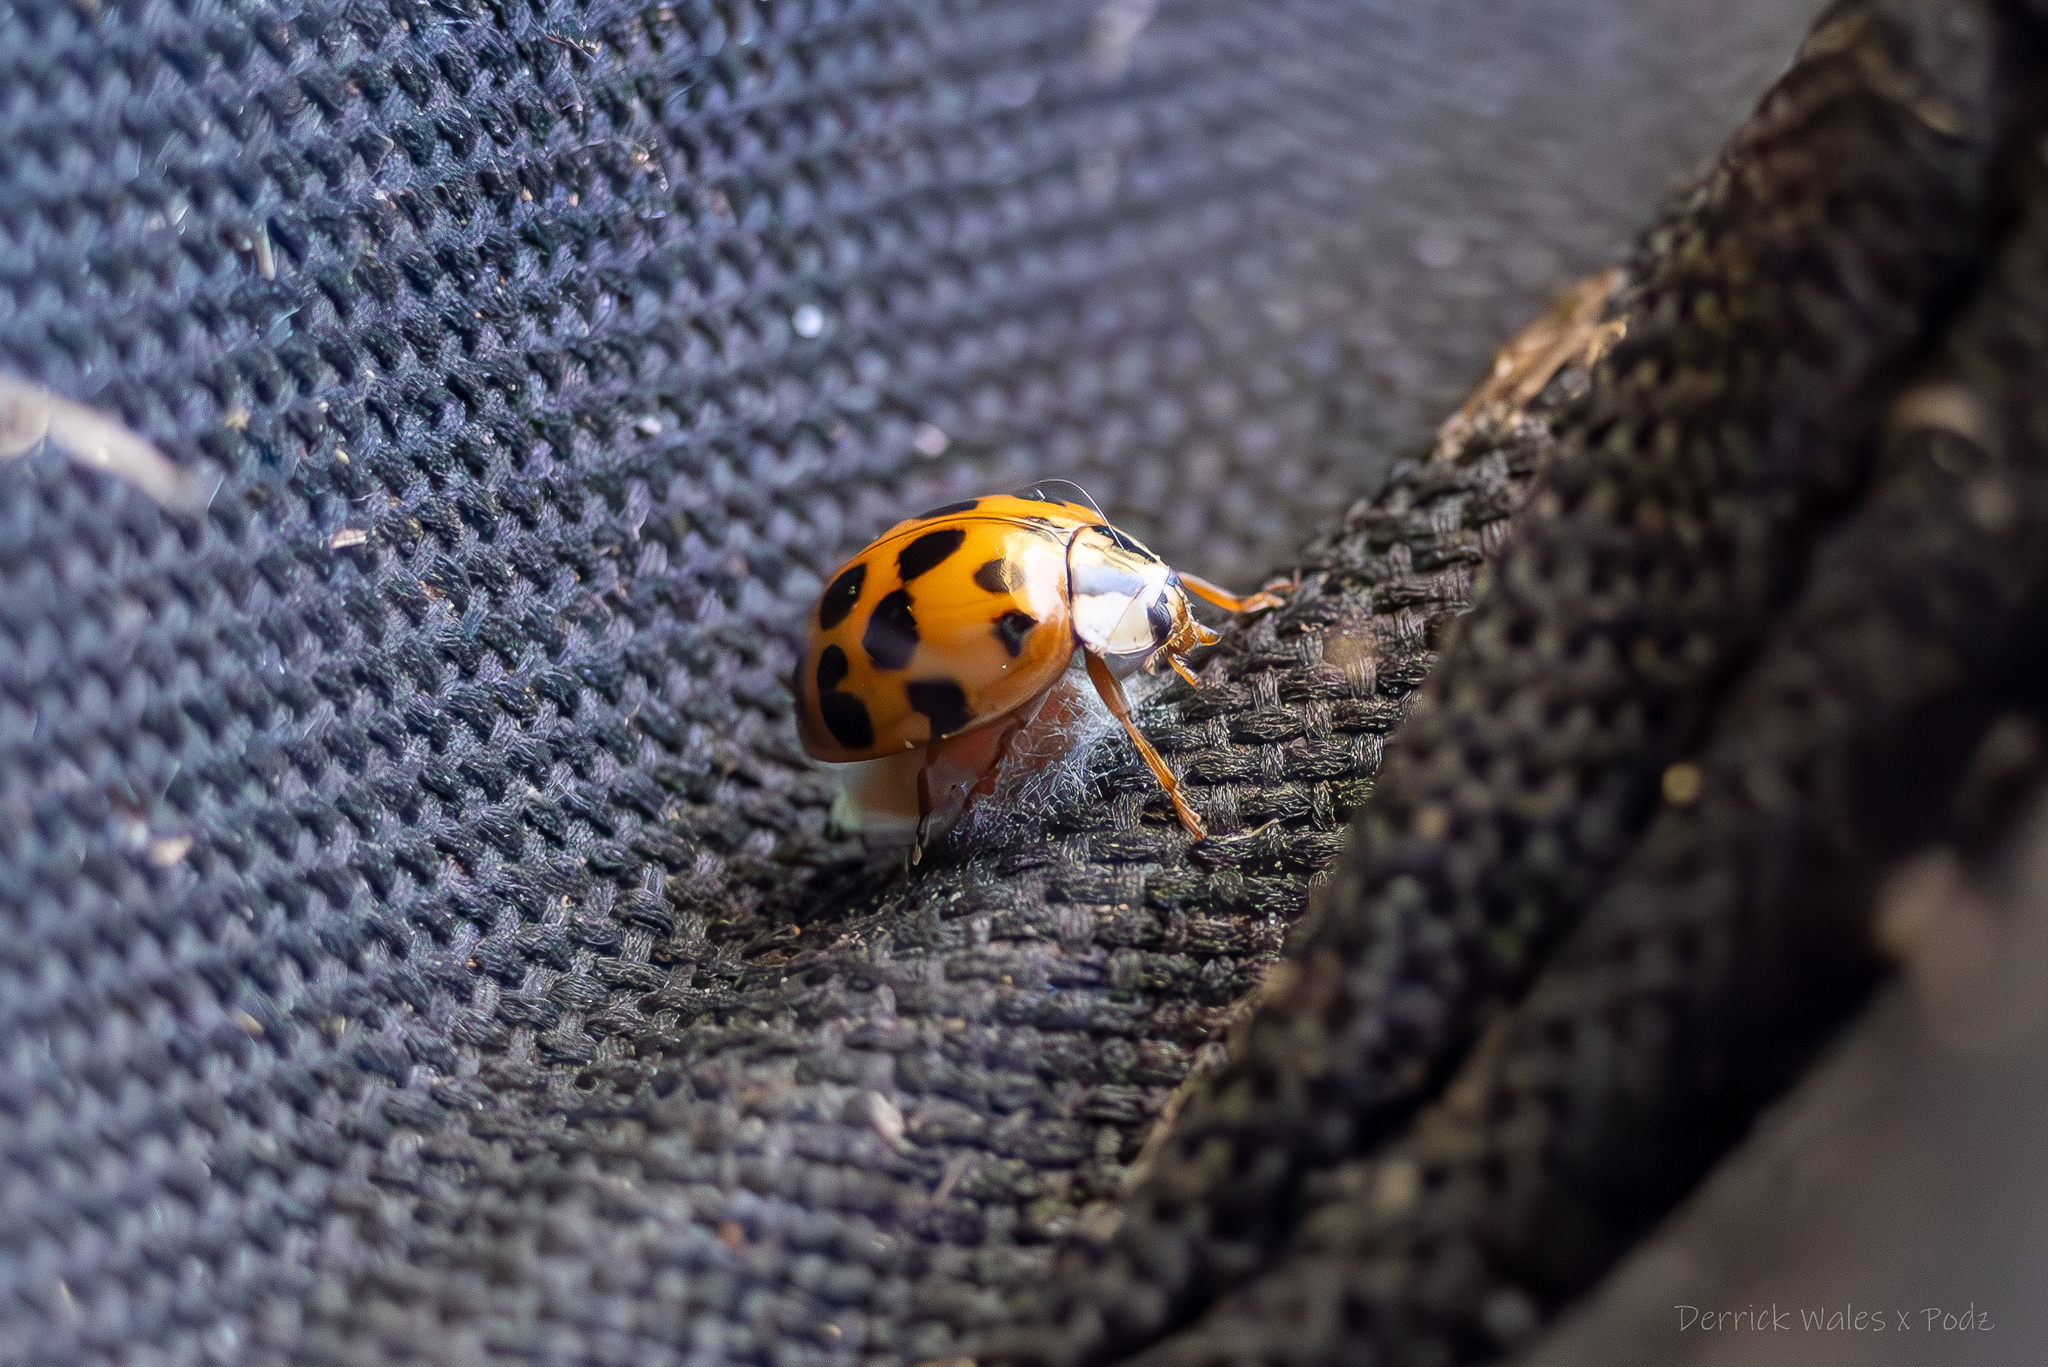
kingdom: Animalia
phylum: Arthropoda
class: Insecta
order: Coleoptera
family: Coccinellidae
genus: Harmonia
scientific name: Harmonia axyridis
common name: Harlequin ladybird
